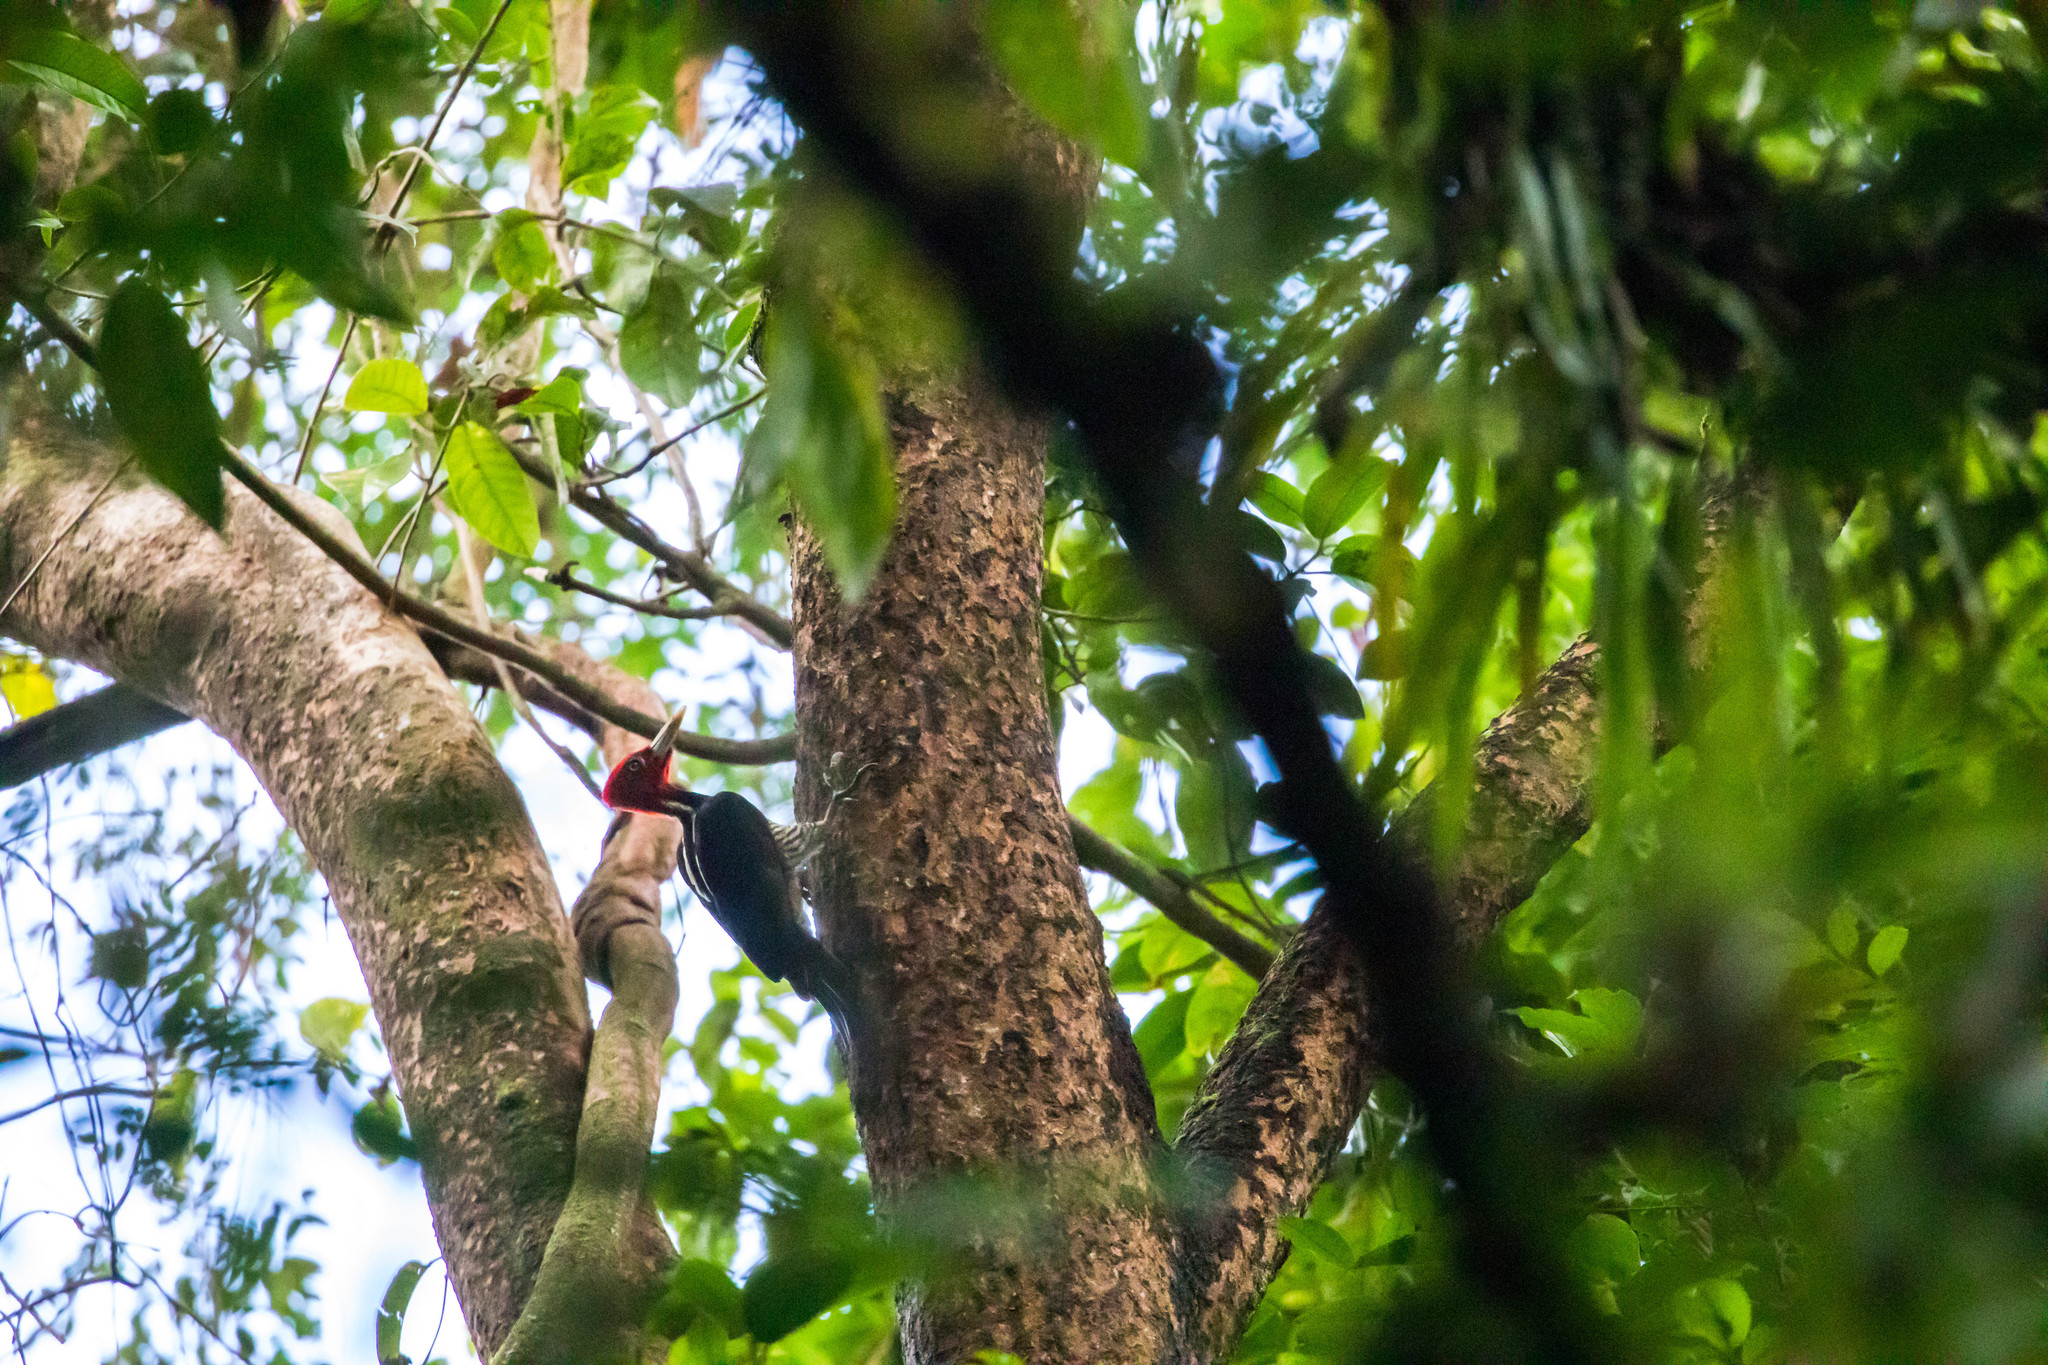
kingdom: Animalia
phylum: Chordata
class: Aves
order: Piciformes
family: Picidae
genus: Campephilus
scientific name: Campephilus guatemalensis
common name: Pale-billed woodpecker
